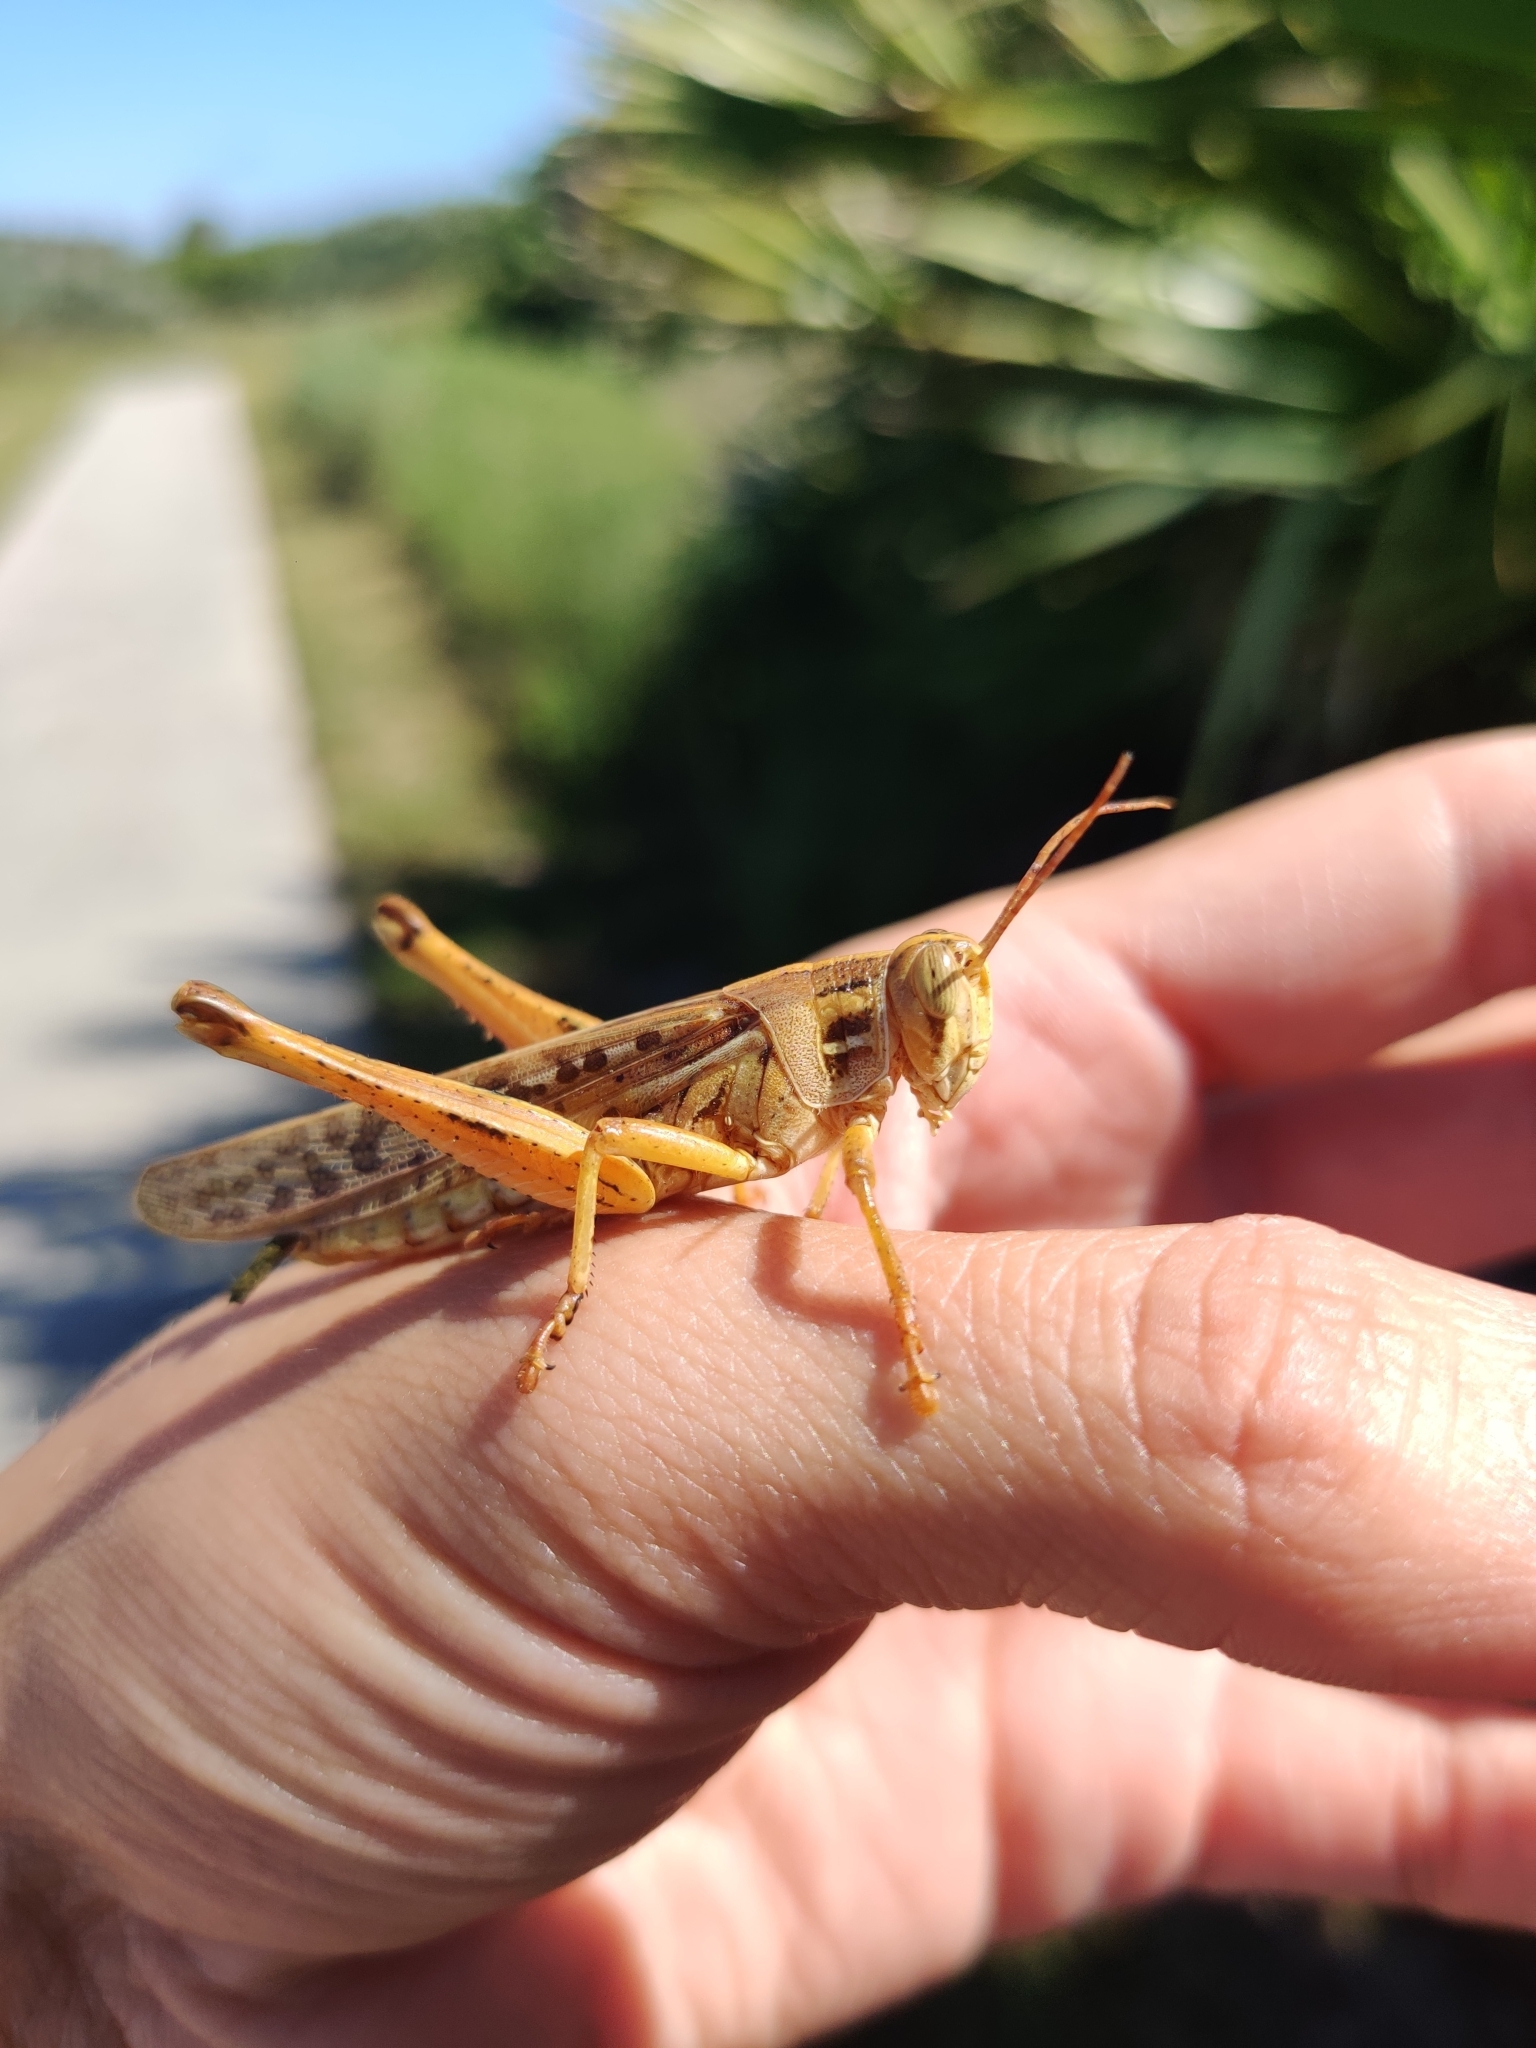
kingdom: Animalia
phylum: Arthropoda
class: Insecta
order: Orthoptera
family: Acrididae
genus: Schistocerca
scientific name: Schistocerca americana
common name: American bird locust
